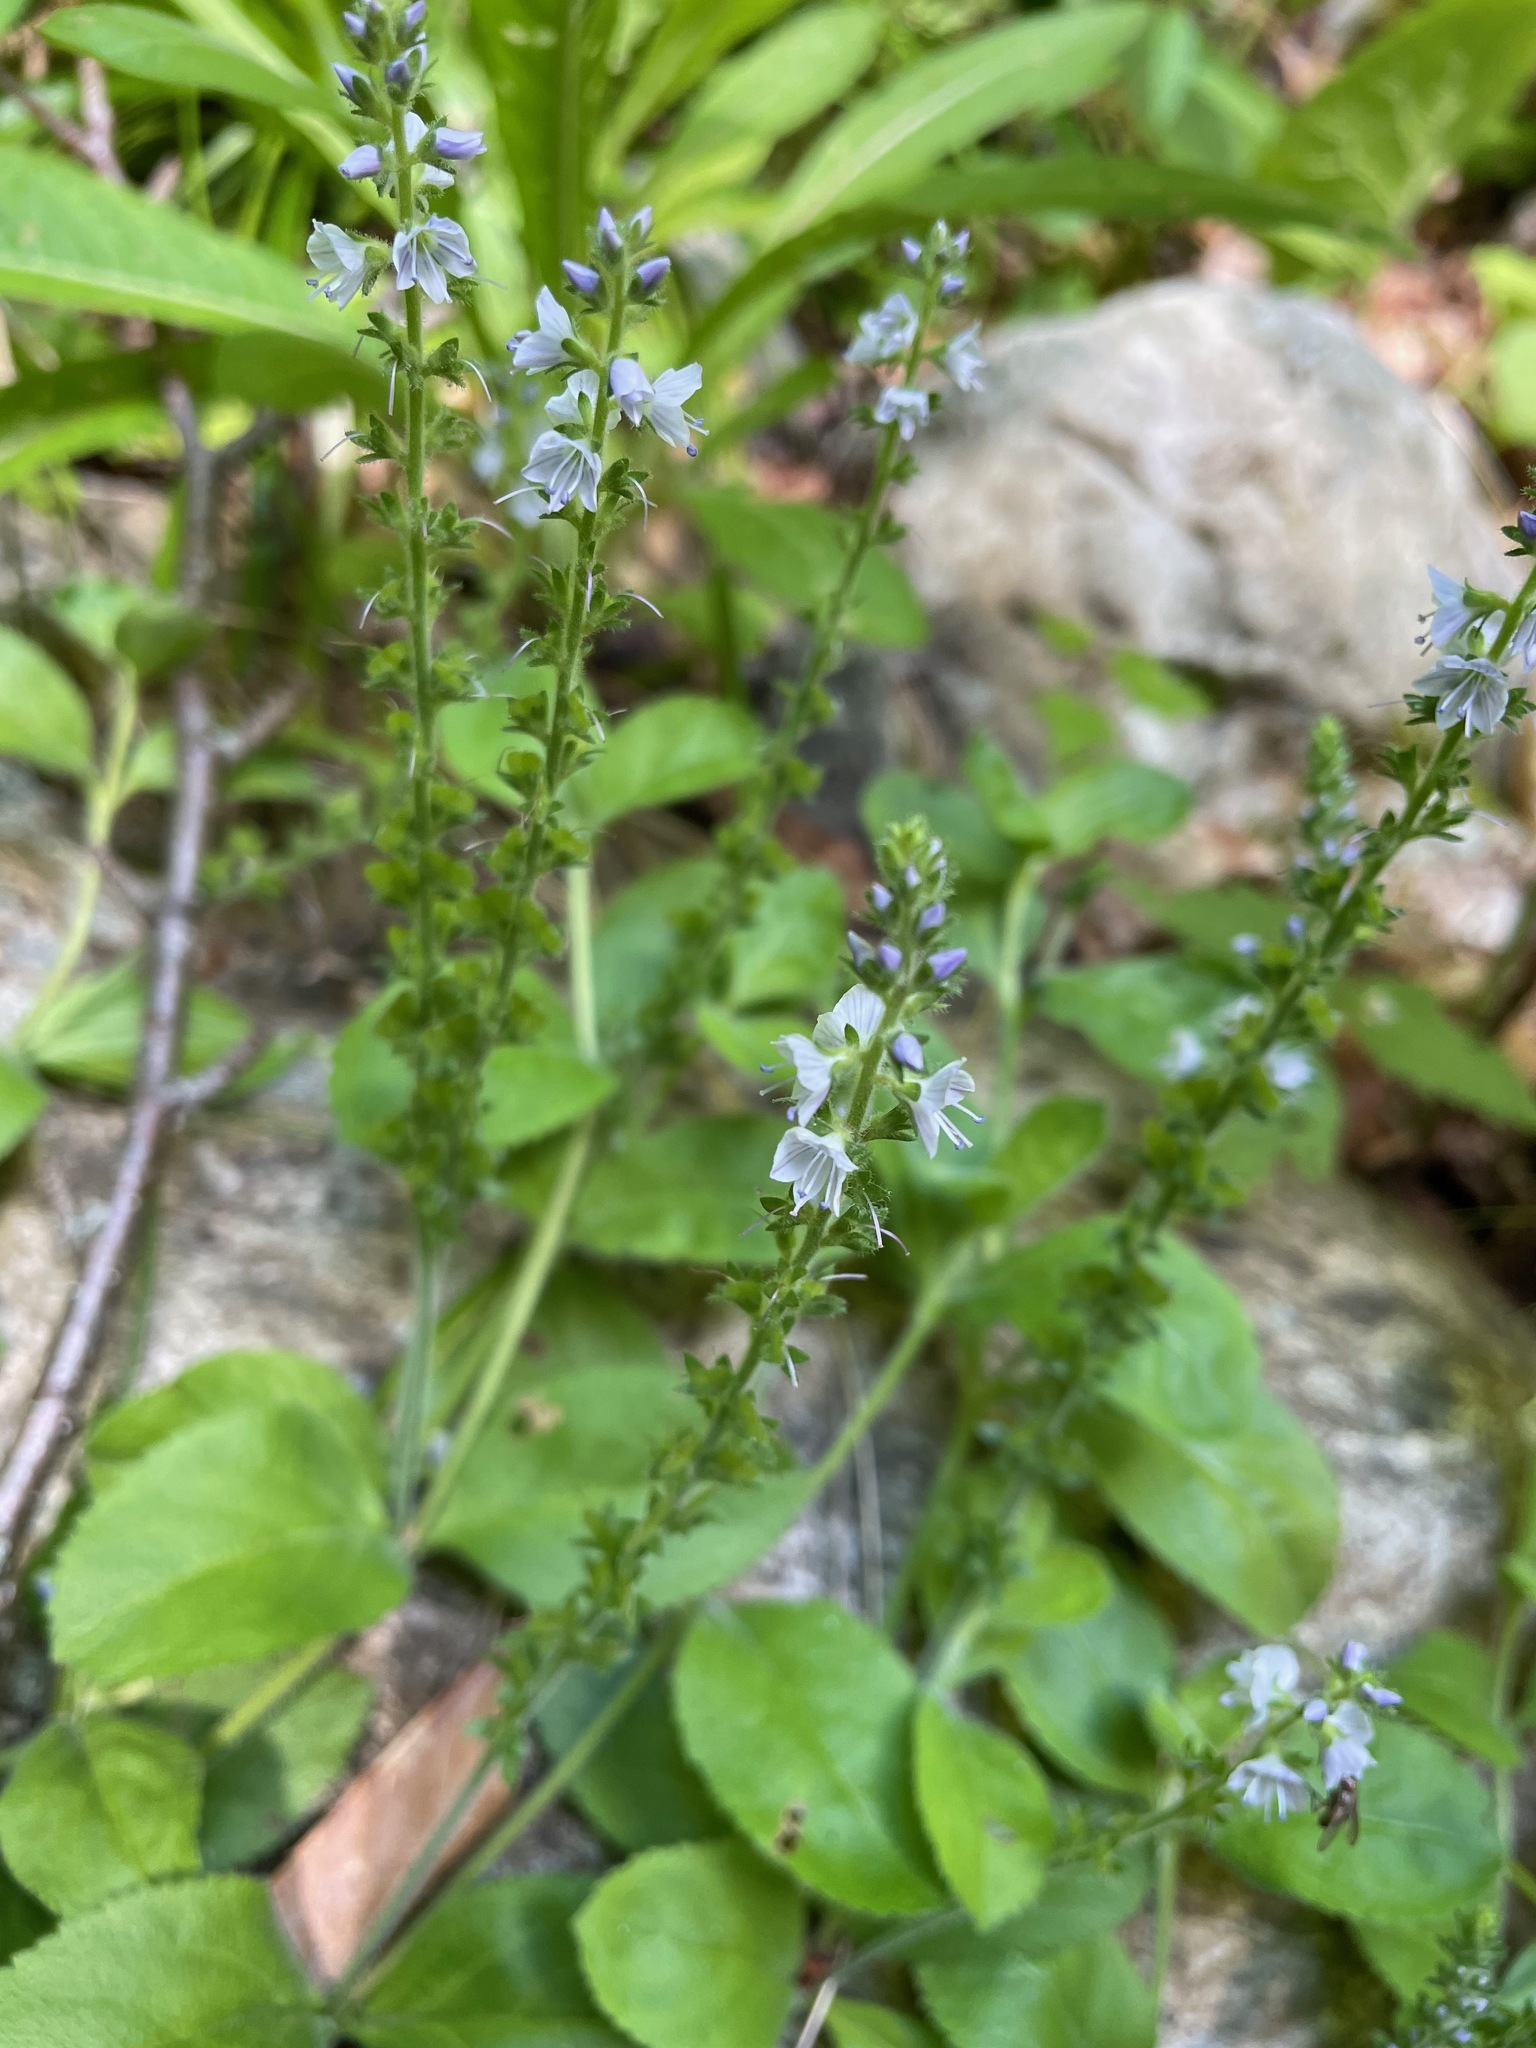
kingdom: Plantae
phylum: Tracheophyta
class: Magnoliopsida
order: Lamiales
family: Plantaginaceae
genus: Veronica
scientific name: Veronica officinalis
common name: Common speedwell
